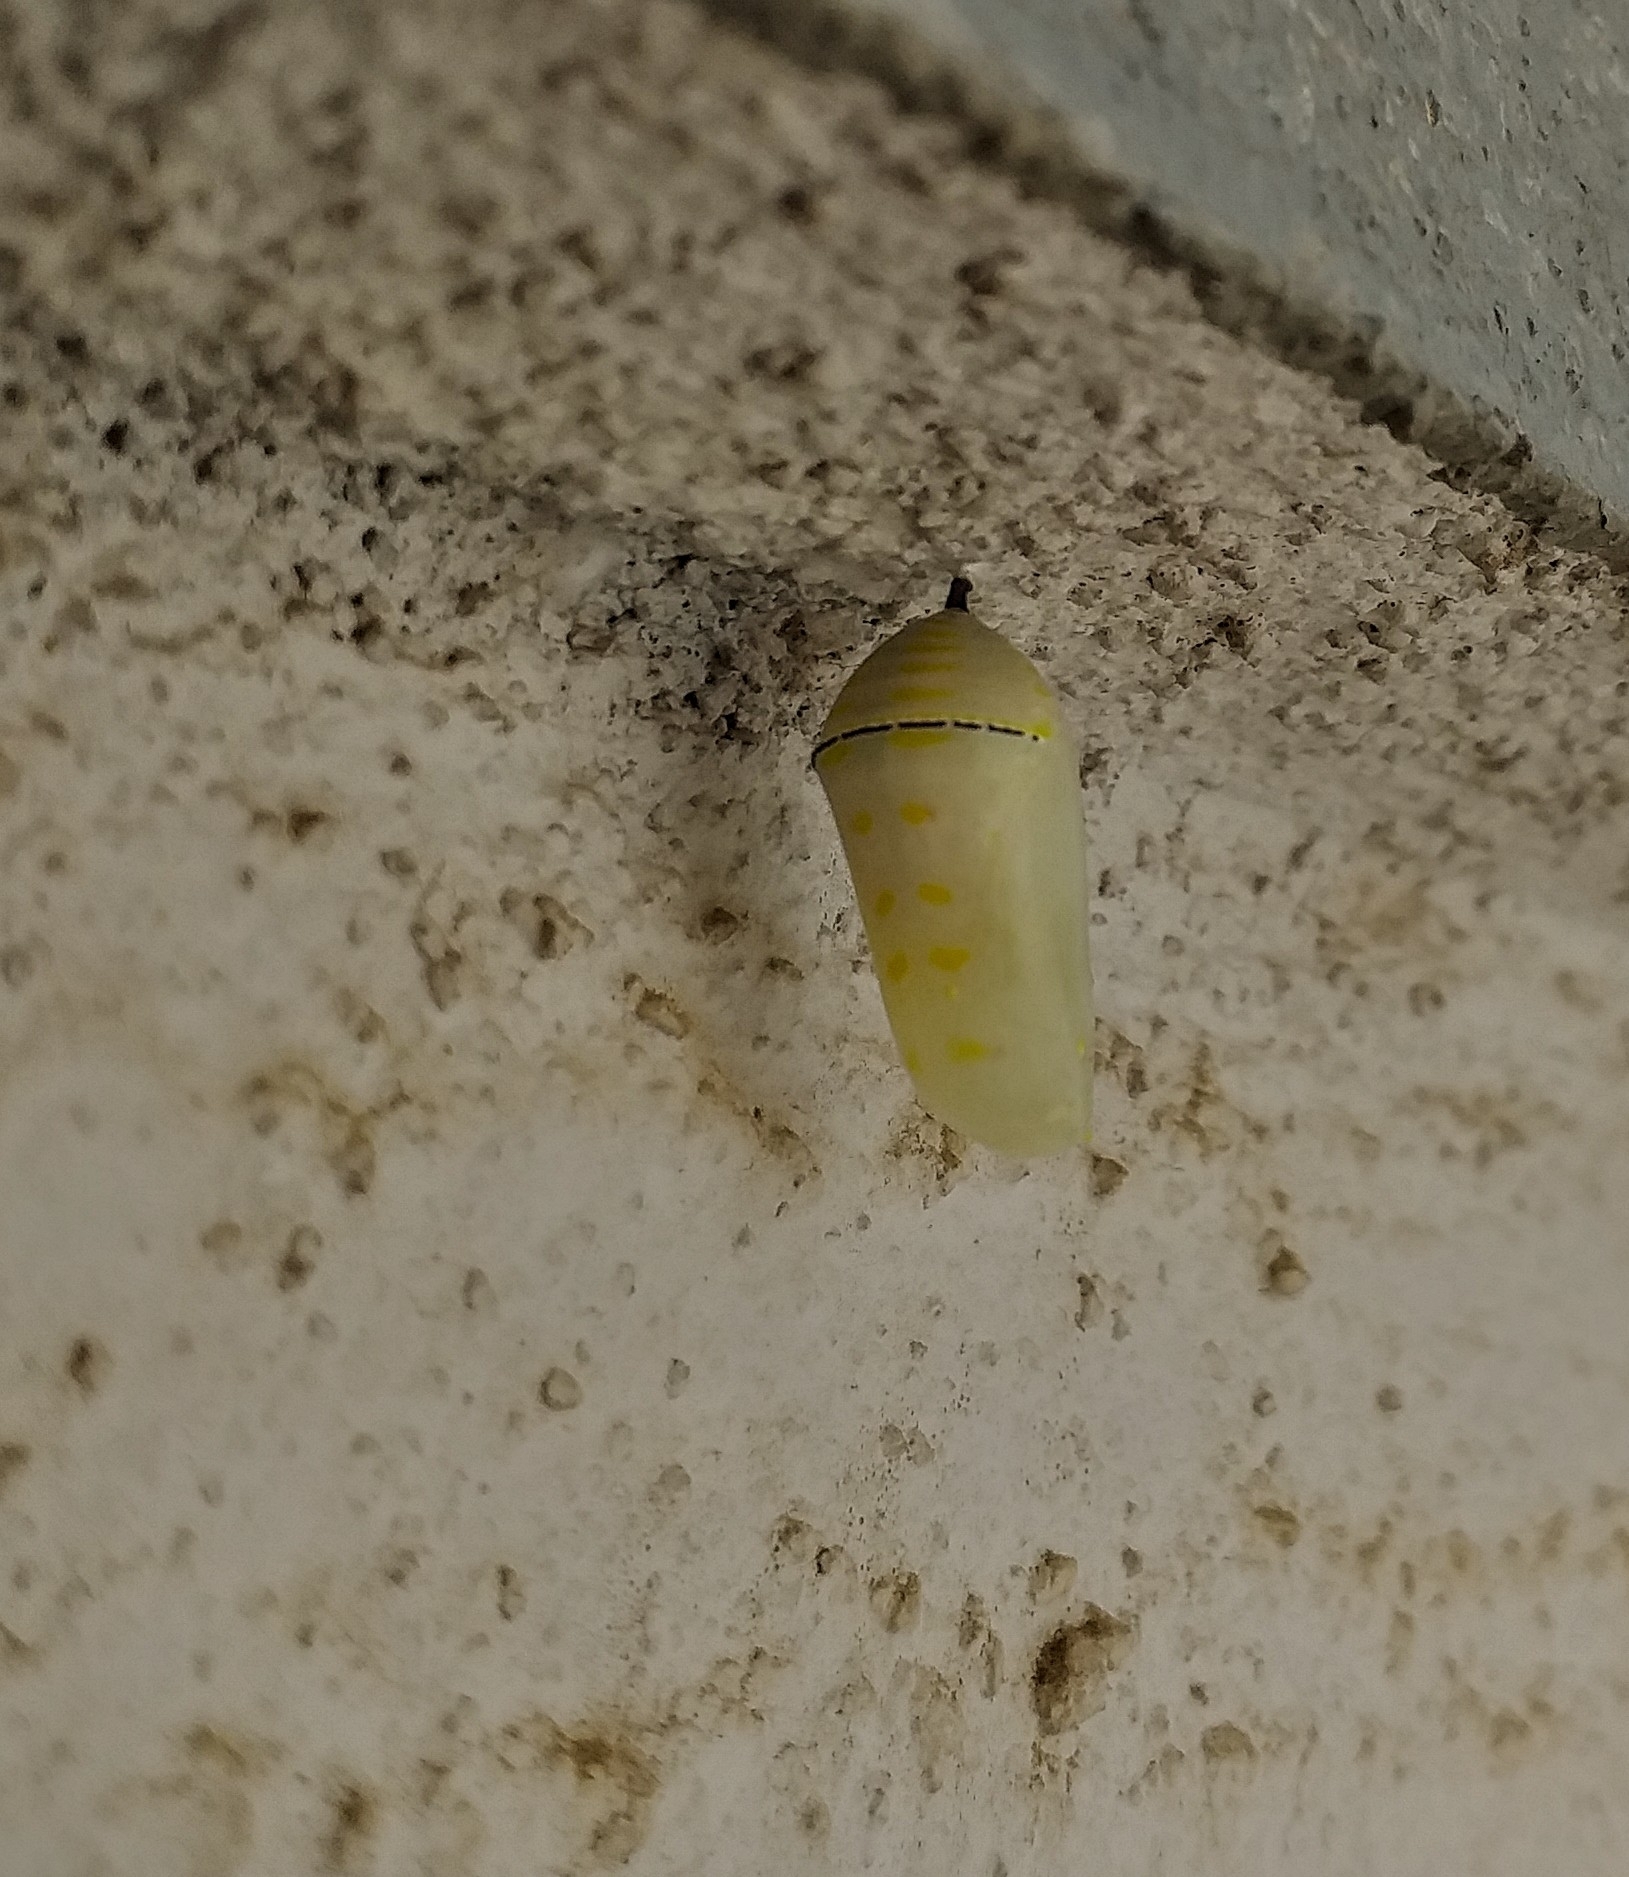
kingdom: Animalia
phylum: Arthropoda
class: Insecta
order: Lepidoptera
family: Nymphalidae
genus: Danaus
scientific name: Danaus chrysippus
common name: Plain tiger
